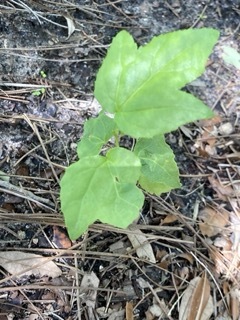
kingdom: Plantae
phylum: Tracheophyta
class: Magnoliopsida
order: Saxifragales
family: Altingiaceae
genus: Liquidambar
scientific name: Liquidambar styraciflua
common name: Sweet gum
